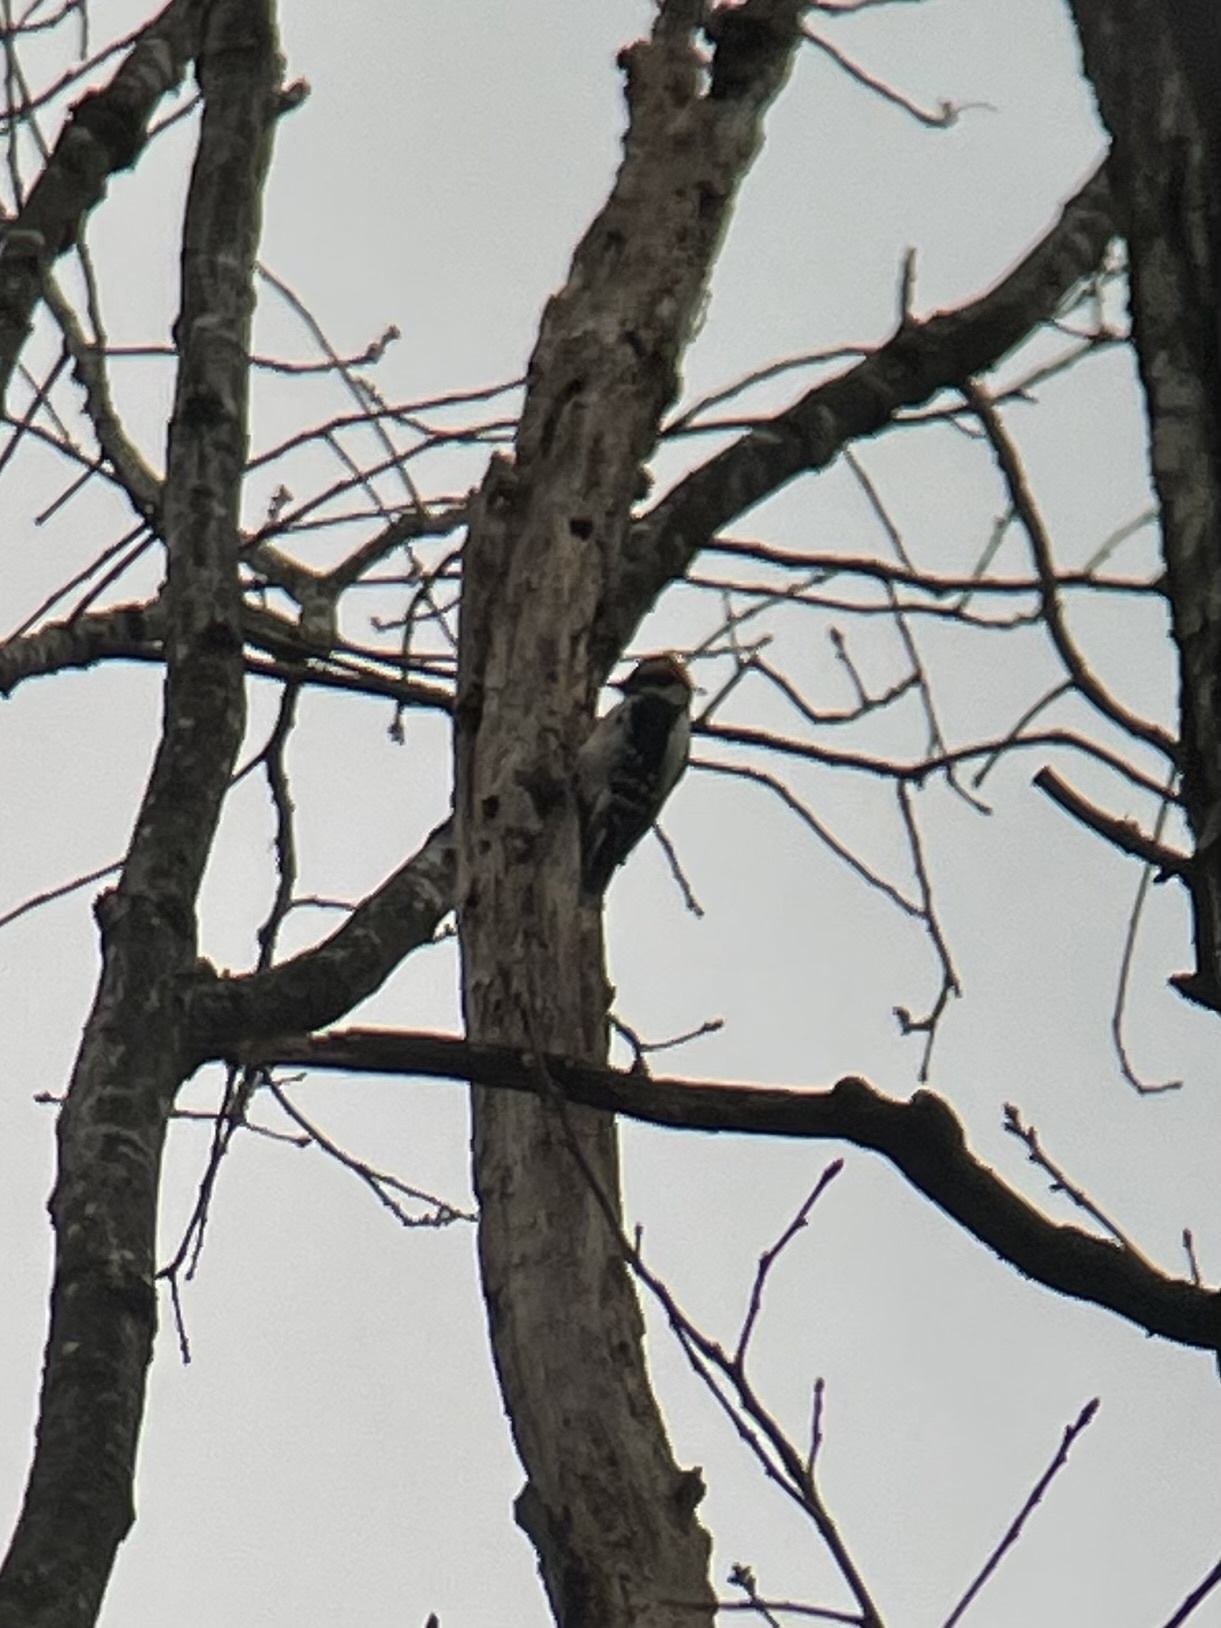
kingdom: Animalia
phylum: Chordata
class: Aves
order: Piciformes
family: Picidae
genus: Dryobates
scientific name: Dryobates pubescens
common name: Downy woodpecker
